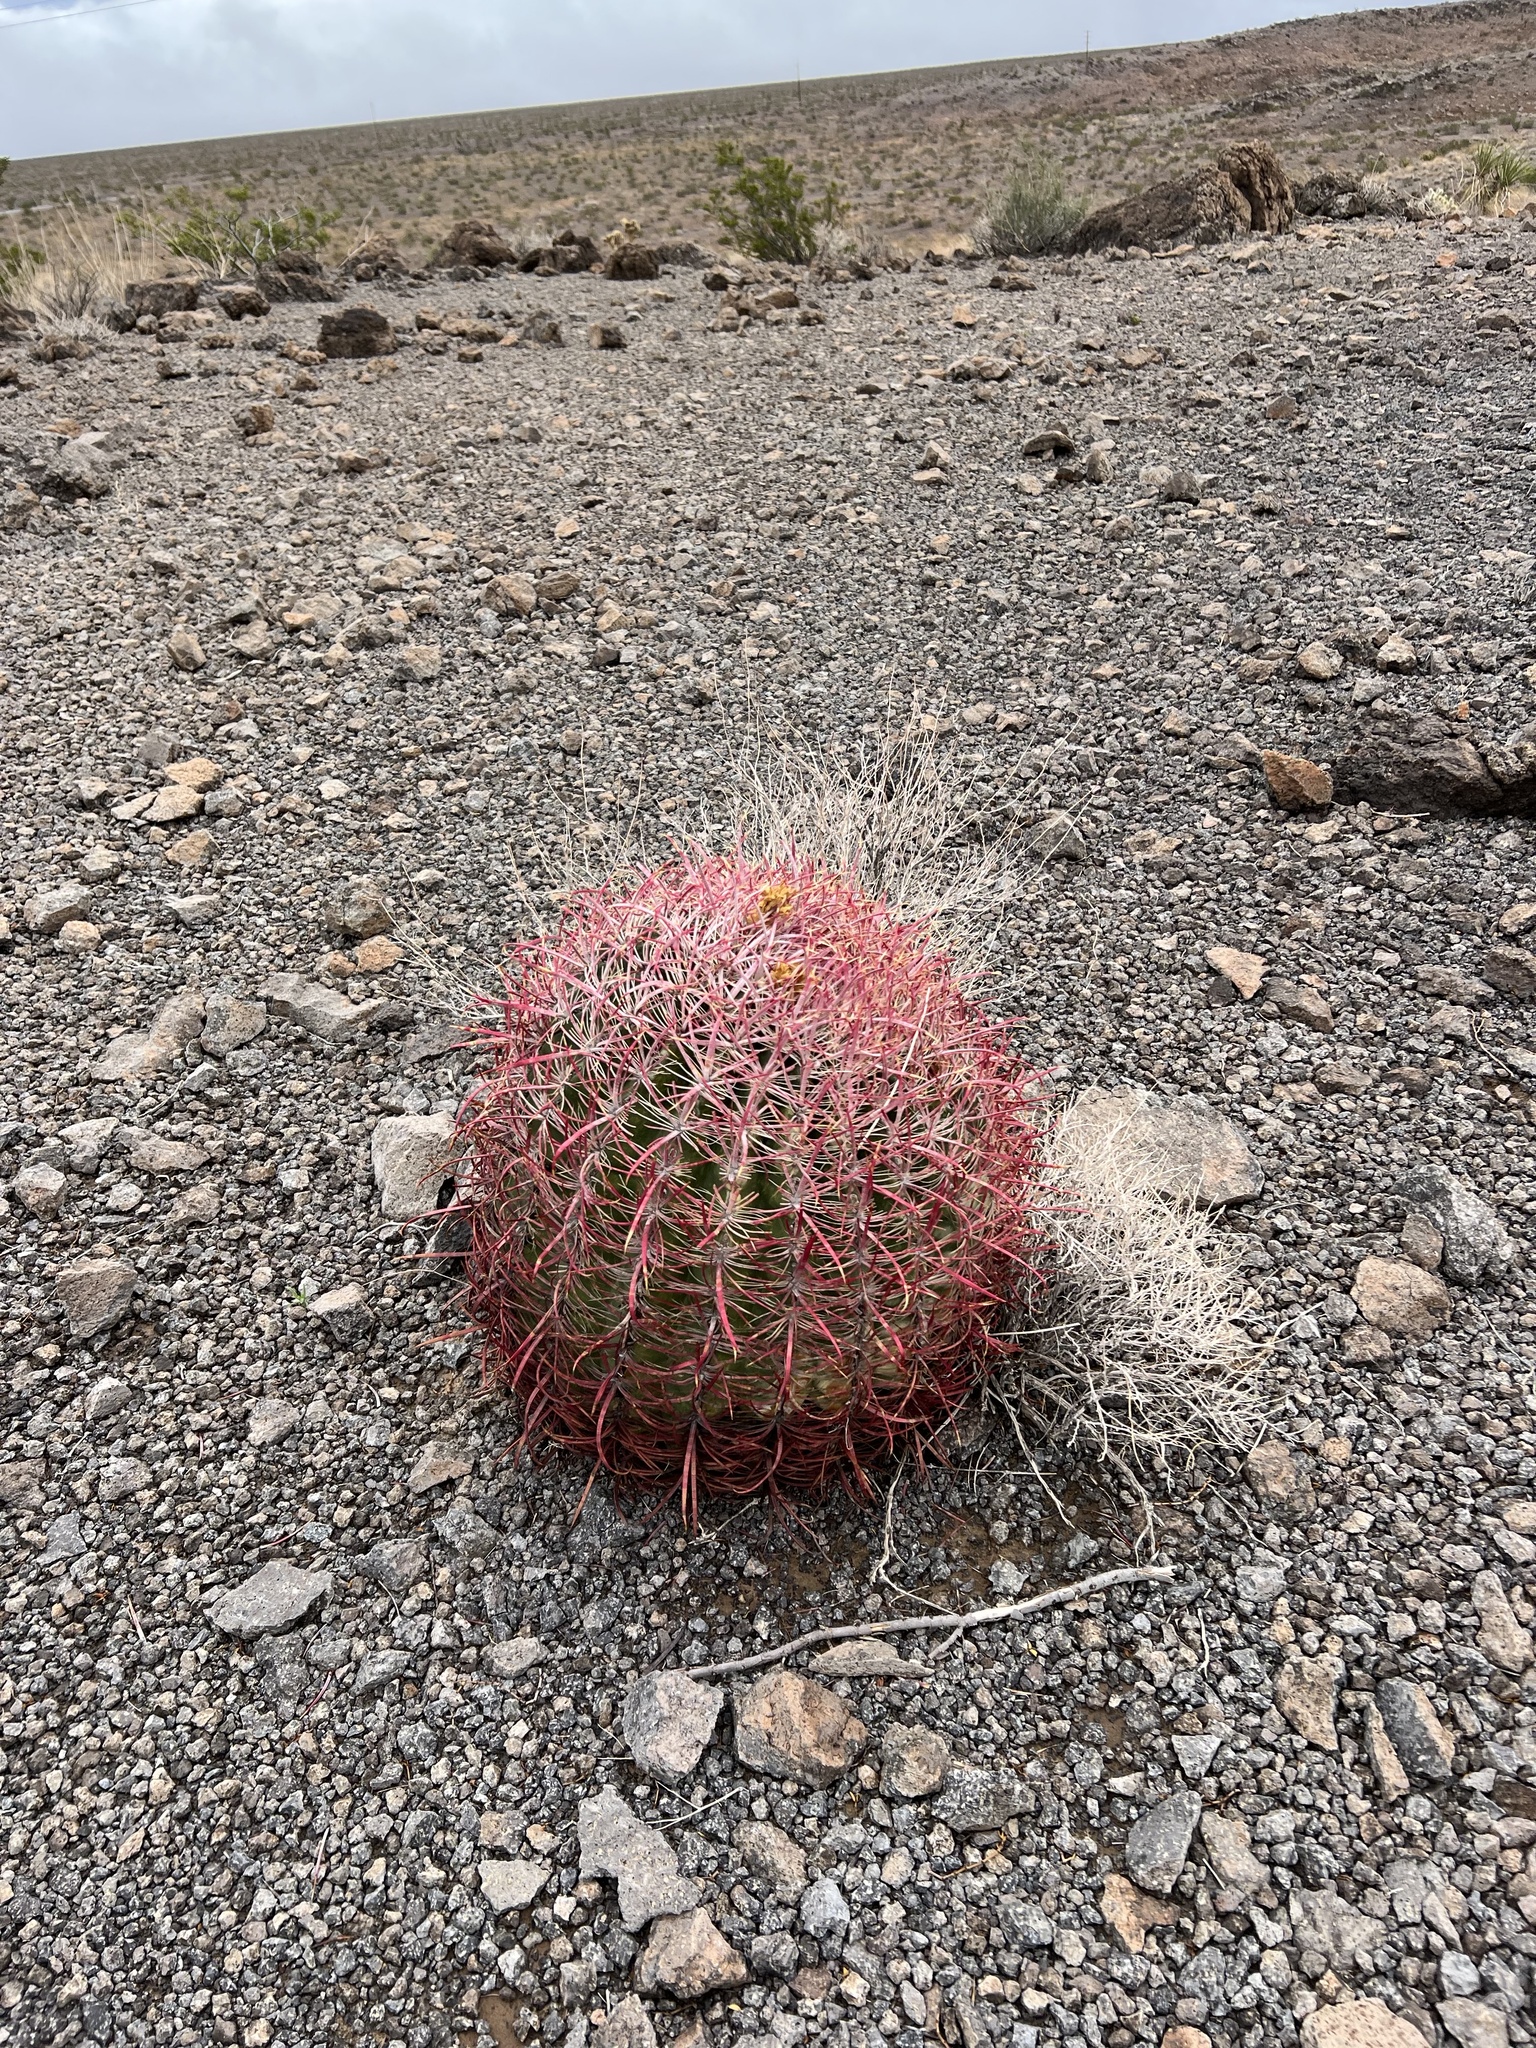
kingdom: Plantae
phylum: Tracheophyta
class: Magnoliopsida
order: Caryophyllales
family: Cactaceae
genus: Ferocactus
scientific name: Ferocactus cylindraceus
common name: California barrel cactus
